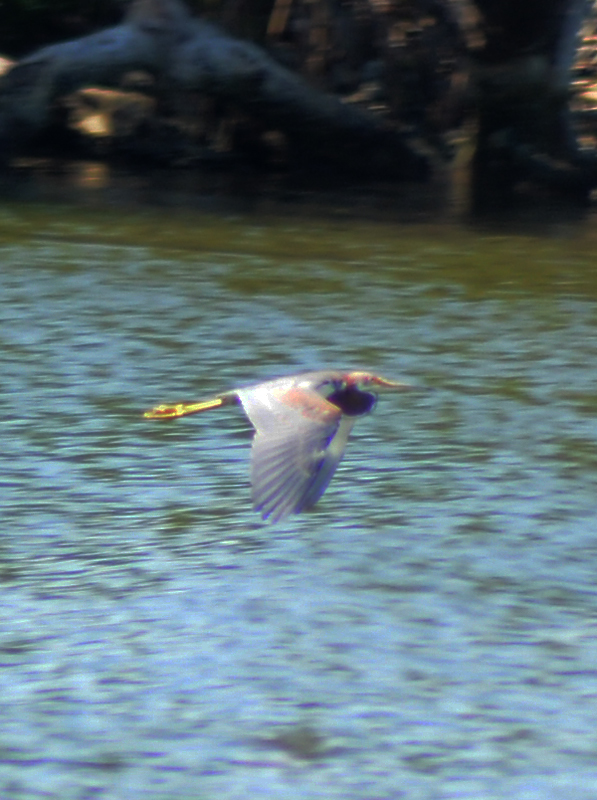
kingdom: Animalia
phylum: Chordata
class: Aves
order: Pelecaniformes
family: Ardeidae
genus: Egretta
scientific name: Egretta tricolor
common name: Tricolored heron
